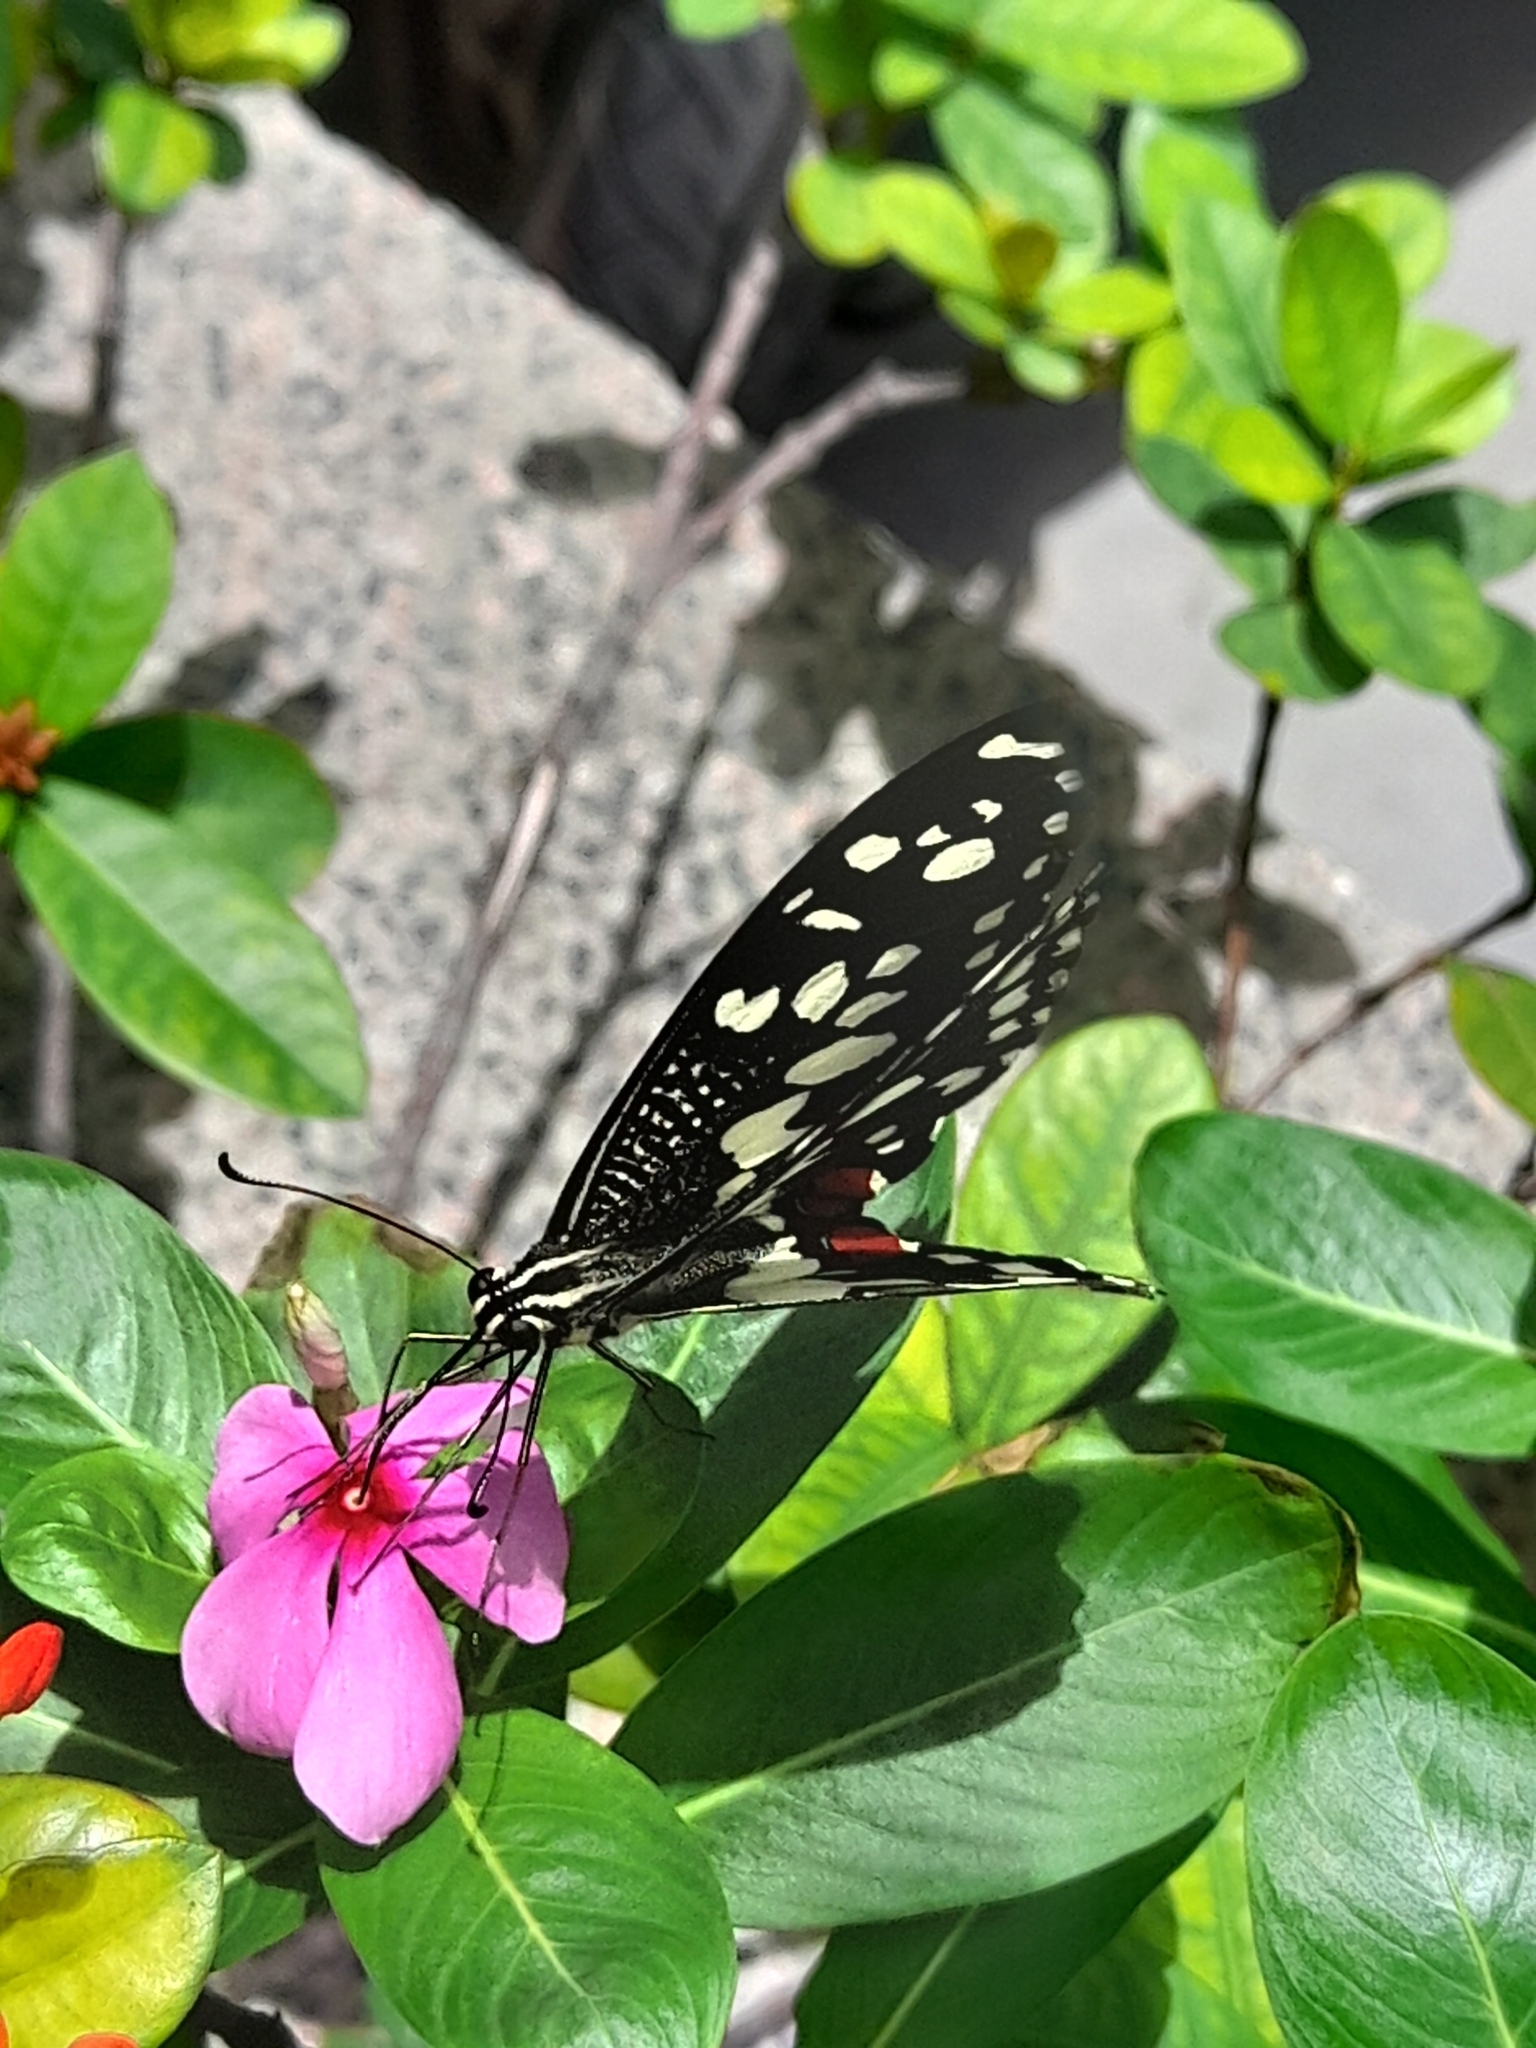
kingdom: Animalia
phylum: Arthropoda
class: Insecta
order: Lepidoptera
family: Papilionidae
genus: Papilio
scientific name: Papilio demoleus
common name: Lime butterfly
